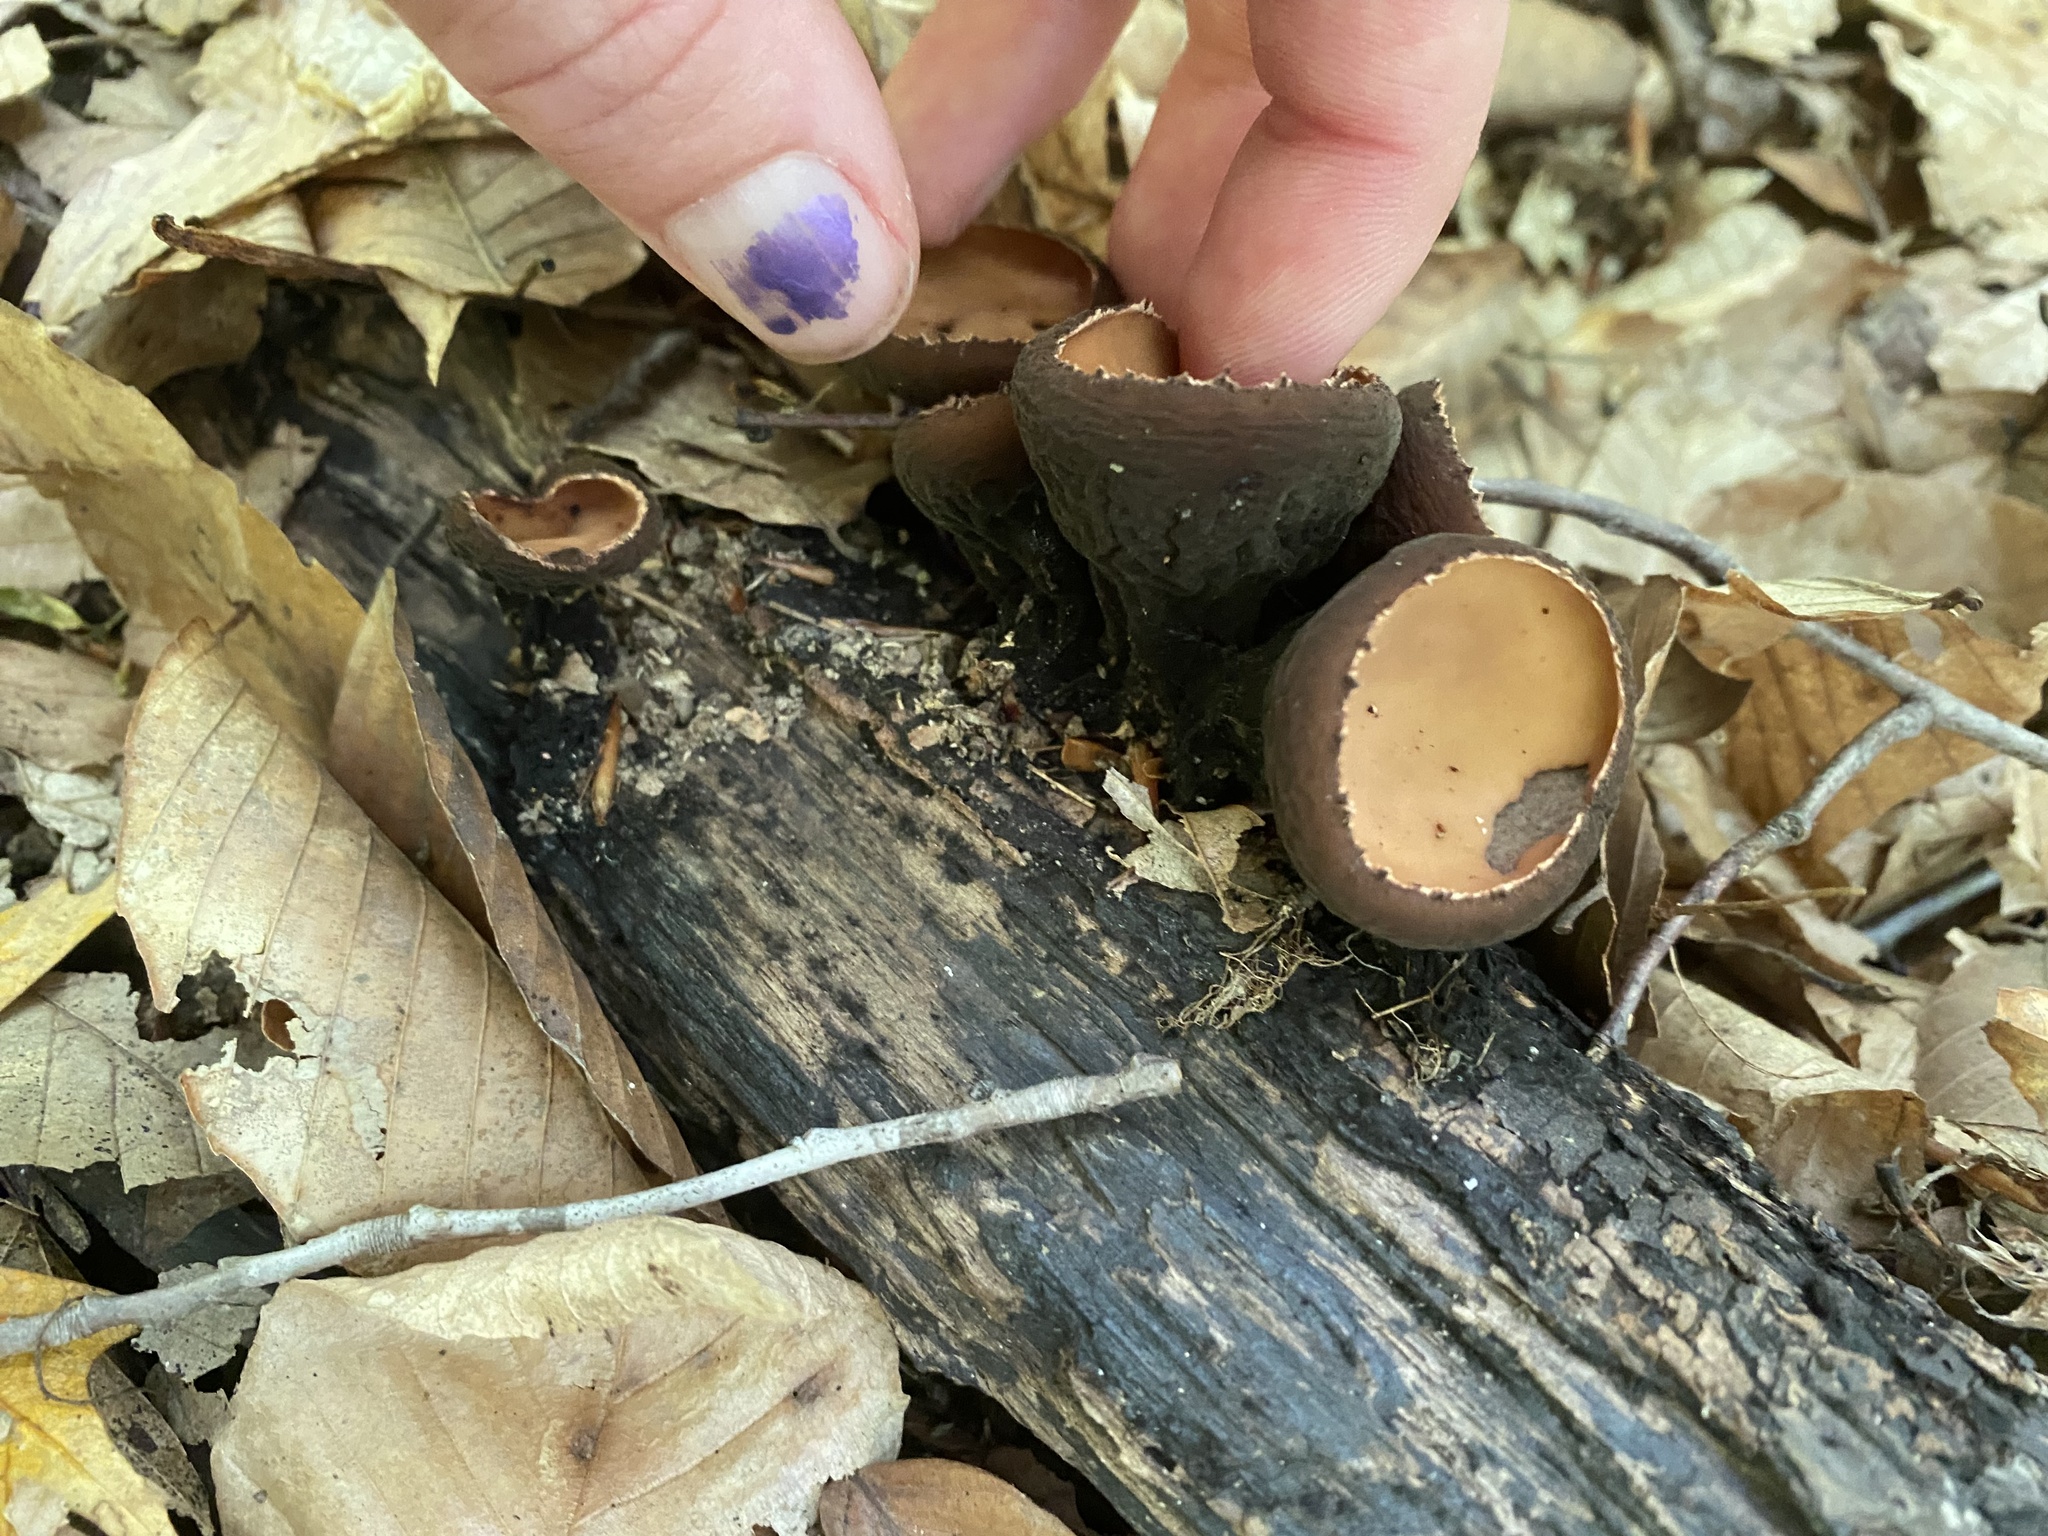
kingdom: Fungi
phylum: Ascomycota
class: Pezizomycetes
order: Pezizales
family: Sarcosomataceae
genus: Galiella
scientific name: Galiella rufa
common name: Hairy rubber cup
